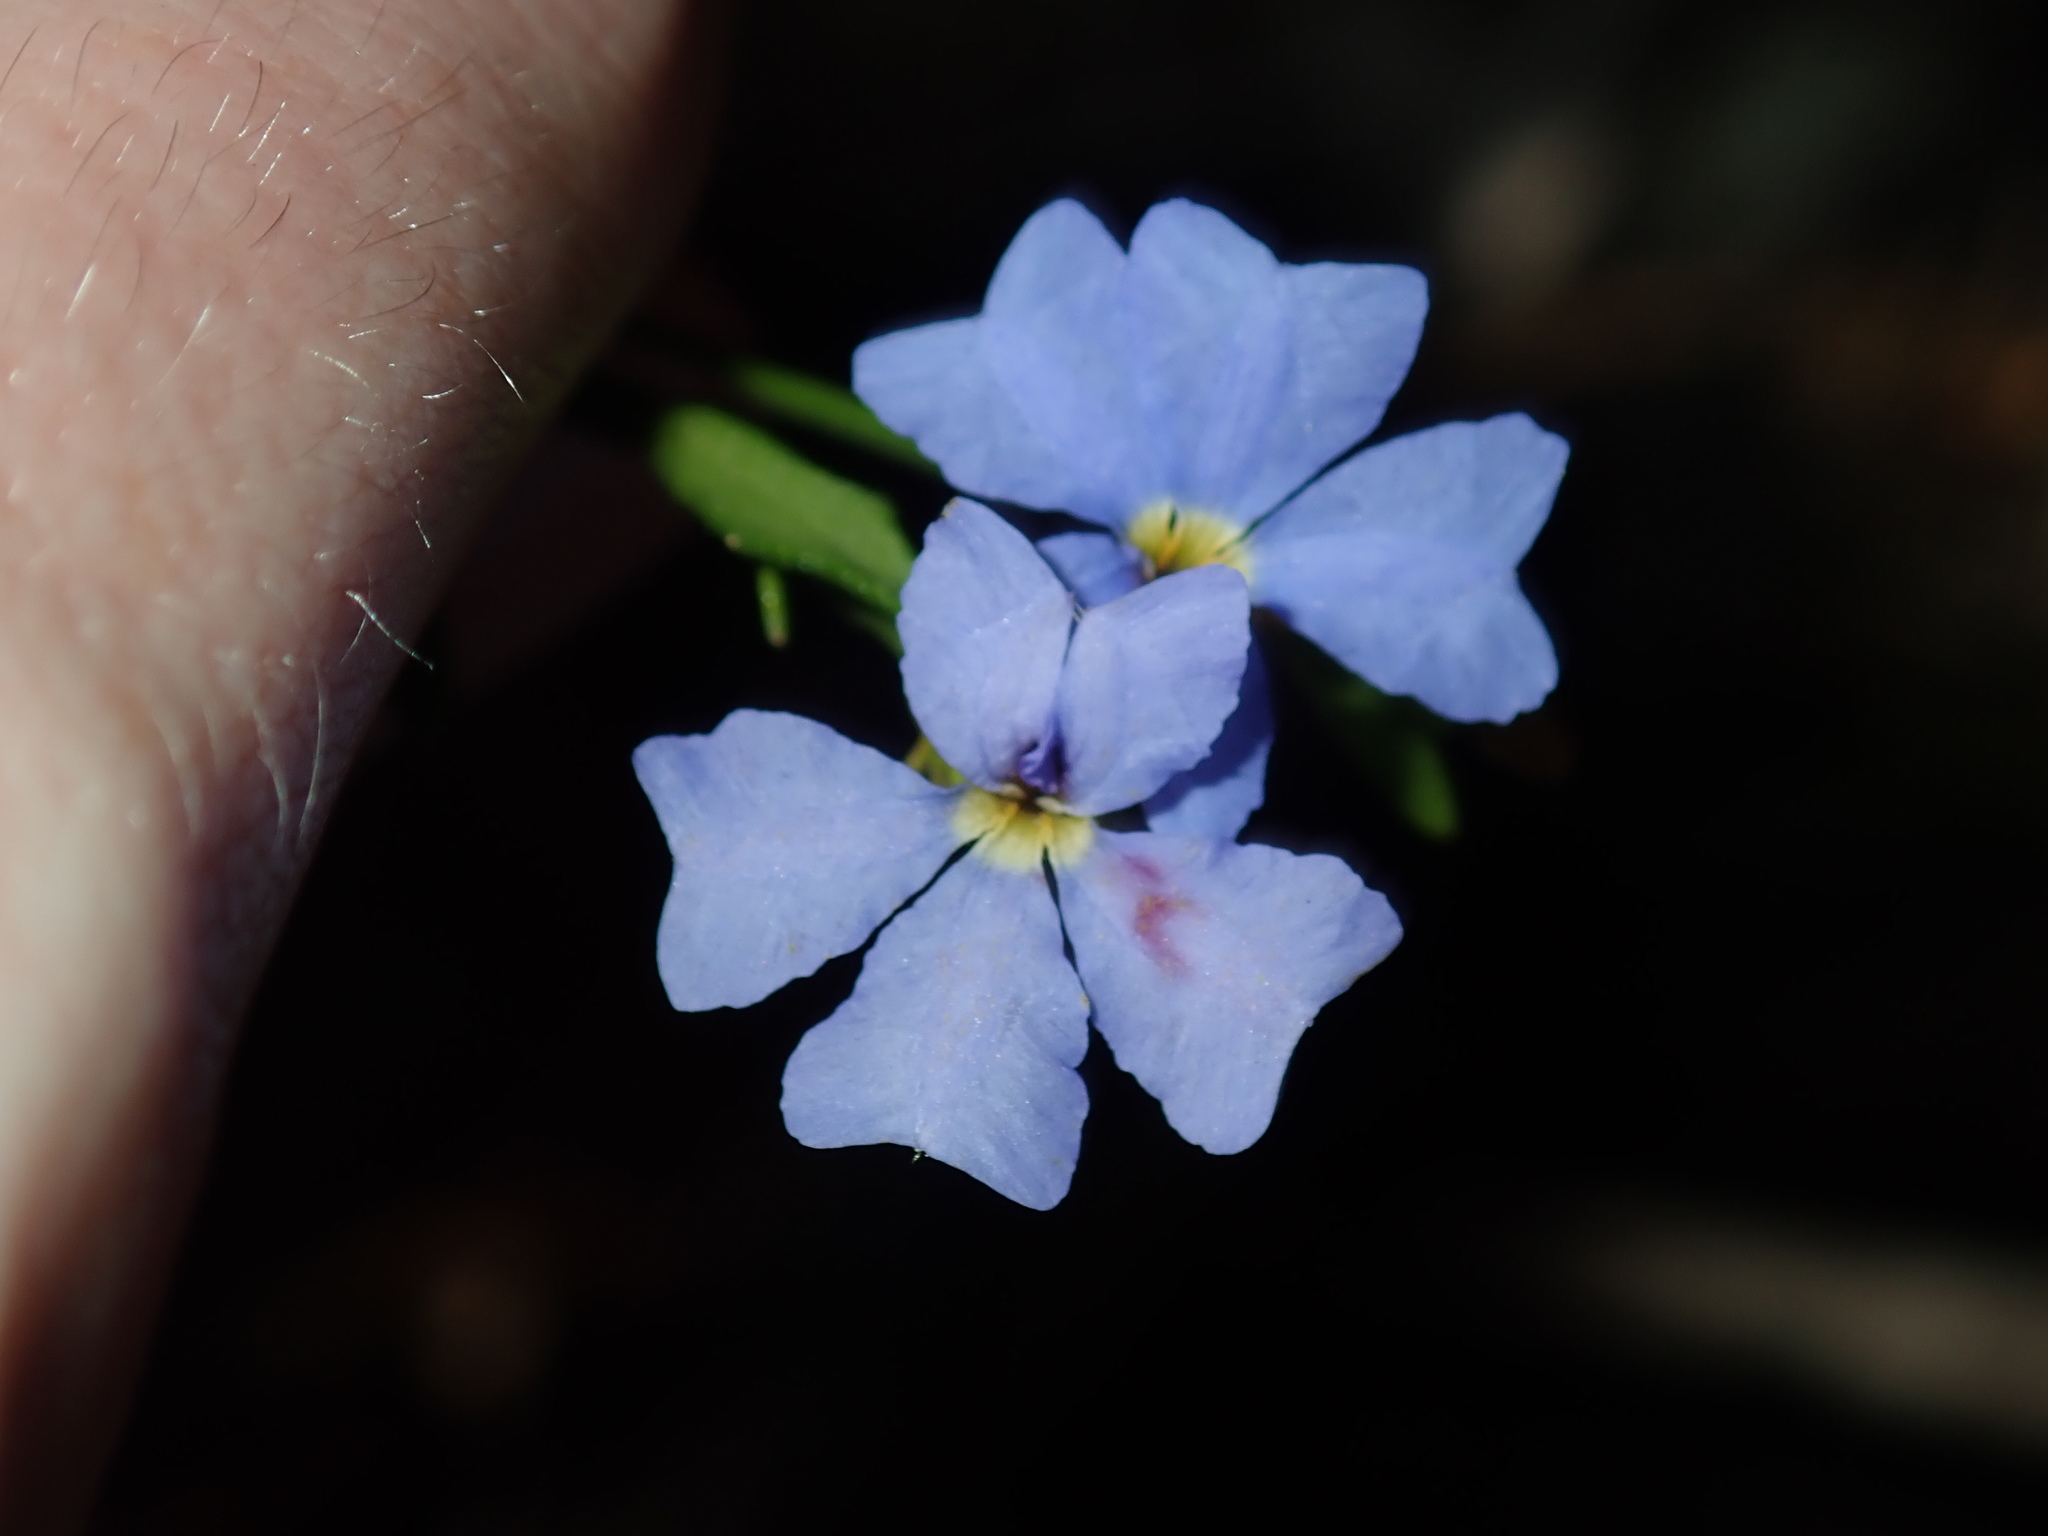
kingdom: Plantae
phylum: Tracheophyta
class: Magnoliopsida
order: Asterales
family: Goodeniaceae
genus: Dampiera
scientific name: Dampiera stricta
